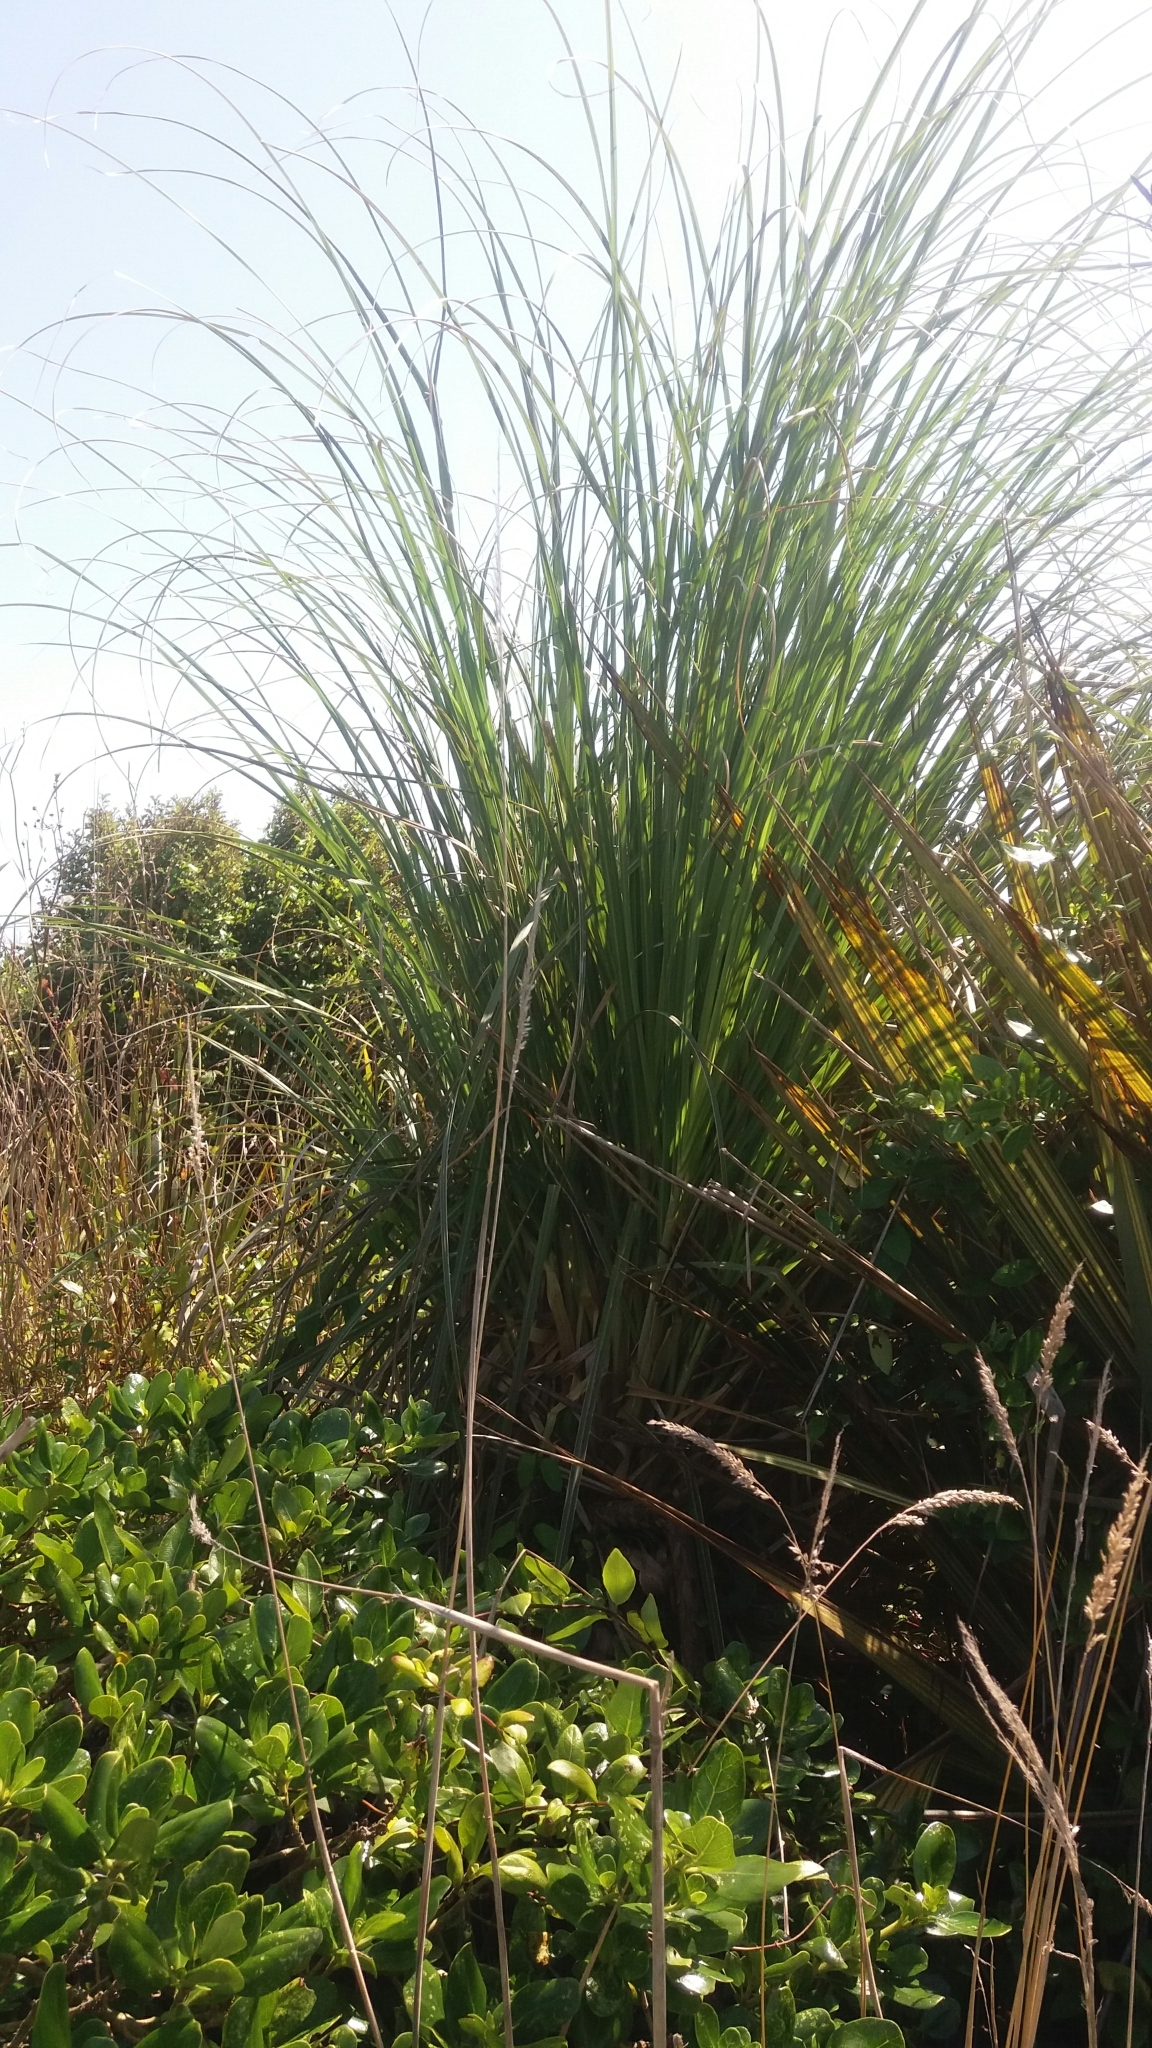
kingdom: Plantae
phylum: Tracheophyta
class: Liliopsida
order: Poales
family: Poaceae
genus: Cortaderia
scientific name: Cortaderia selloana
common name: Uruguayan pampas grass
